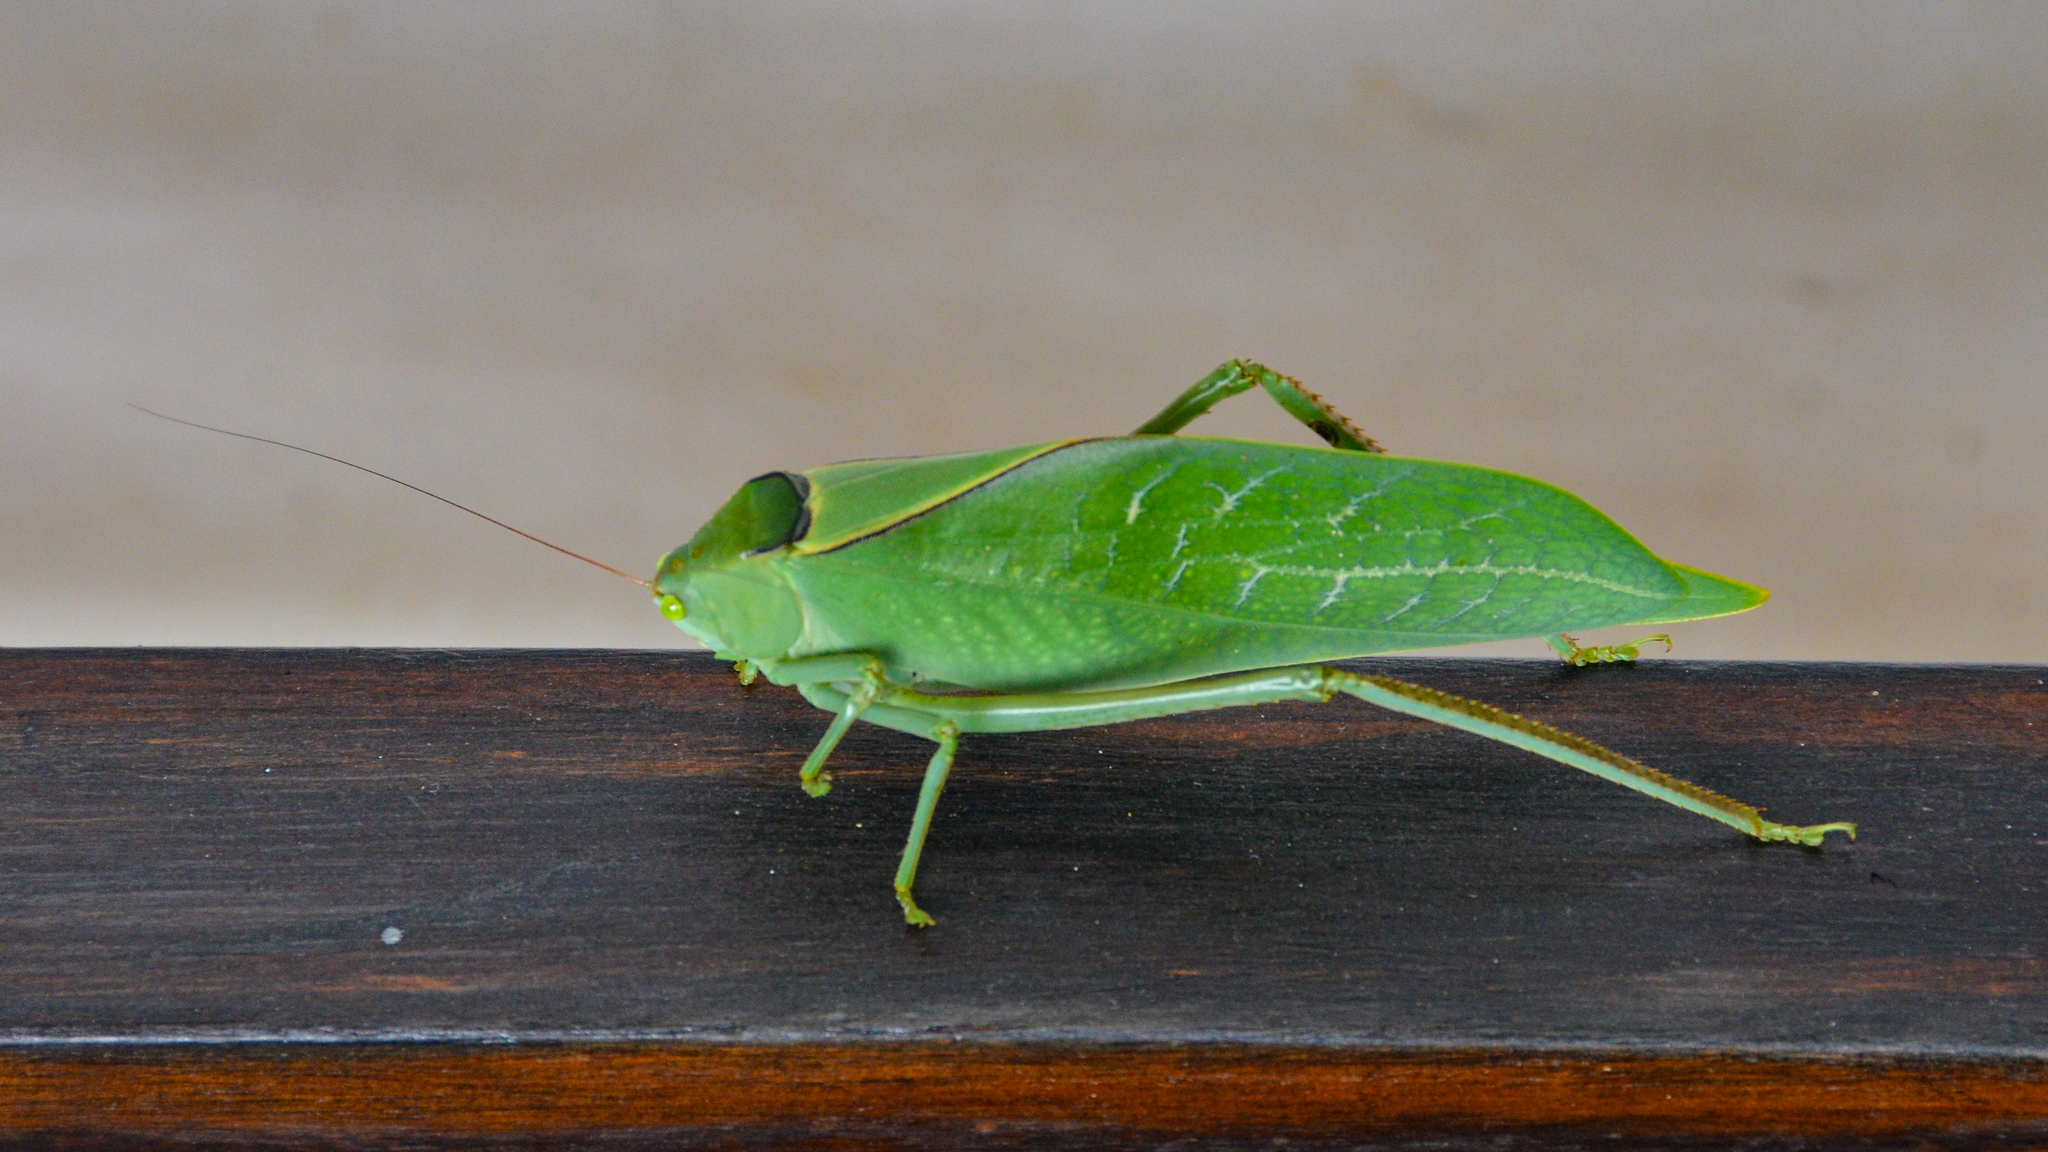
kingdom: Animalia
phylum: Arthropoda
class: Insecta
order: Orthoptera
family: Tettigoniidae
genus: Stilpnochlora
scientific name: Stilpnochlora azteca
